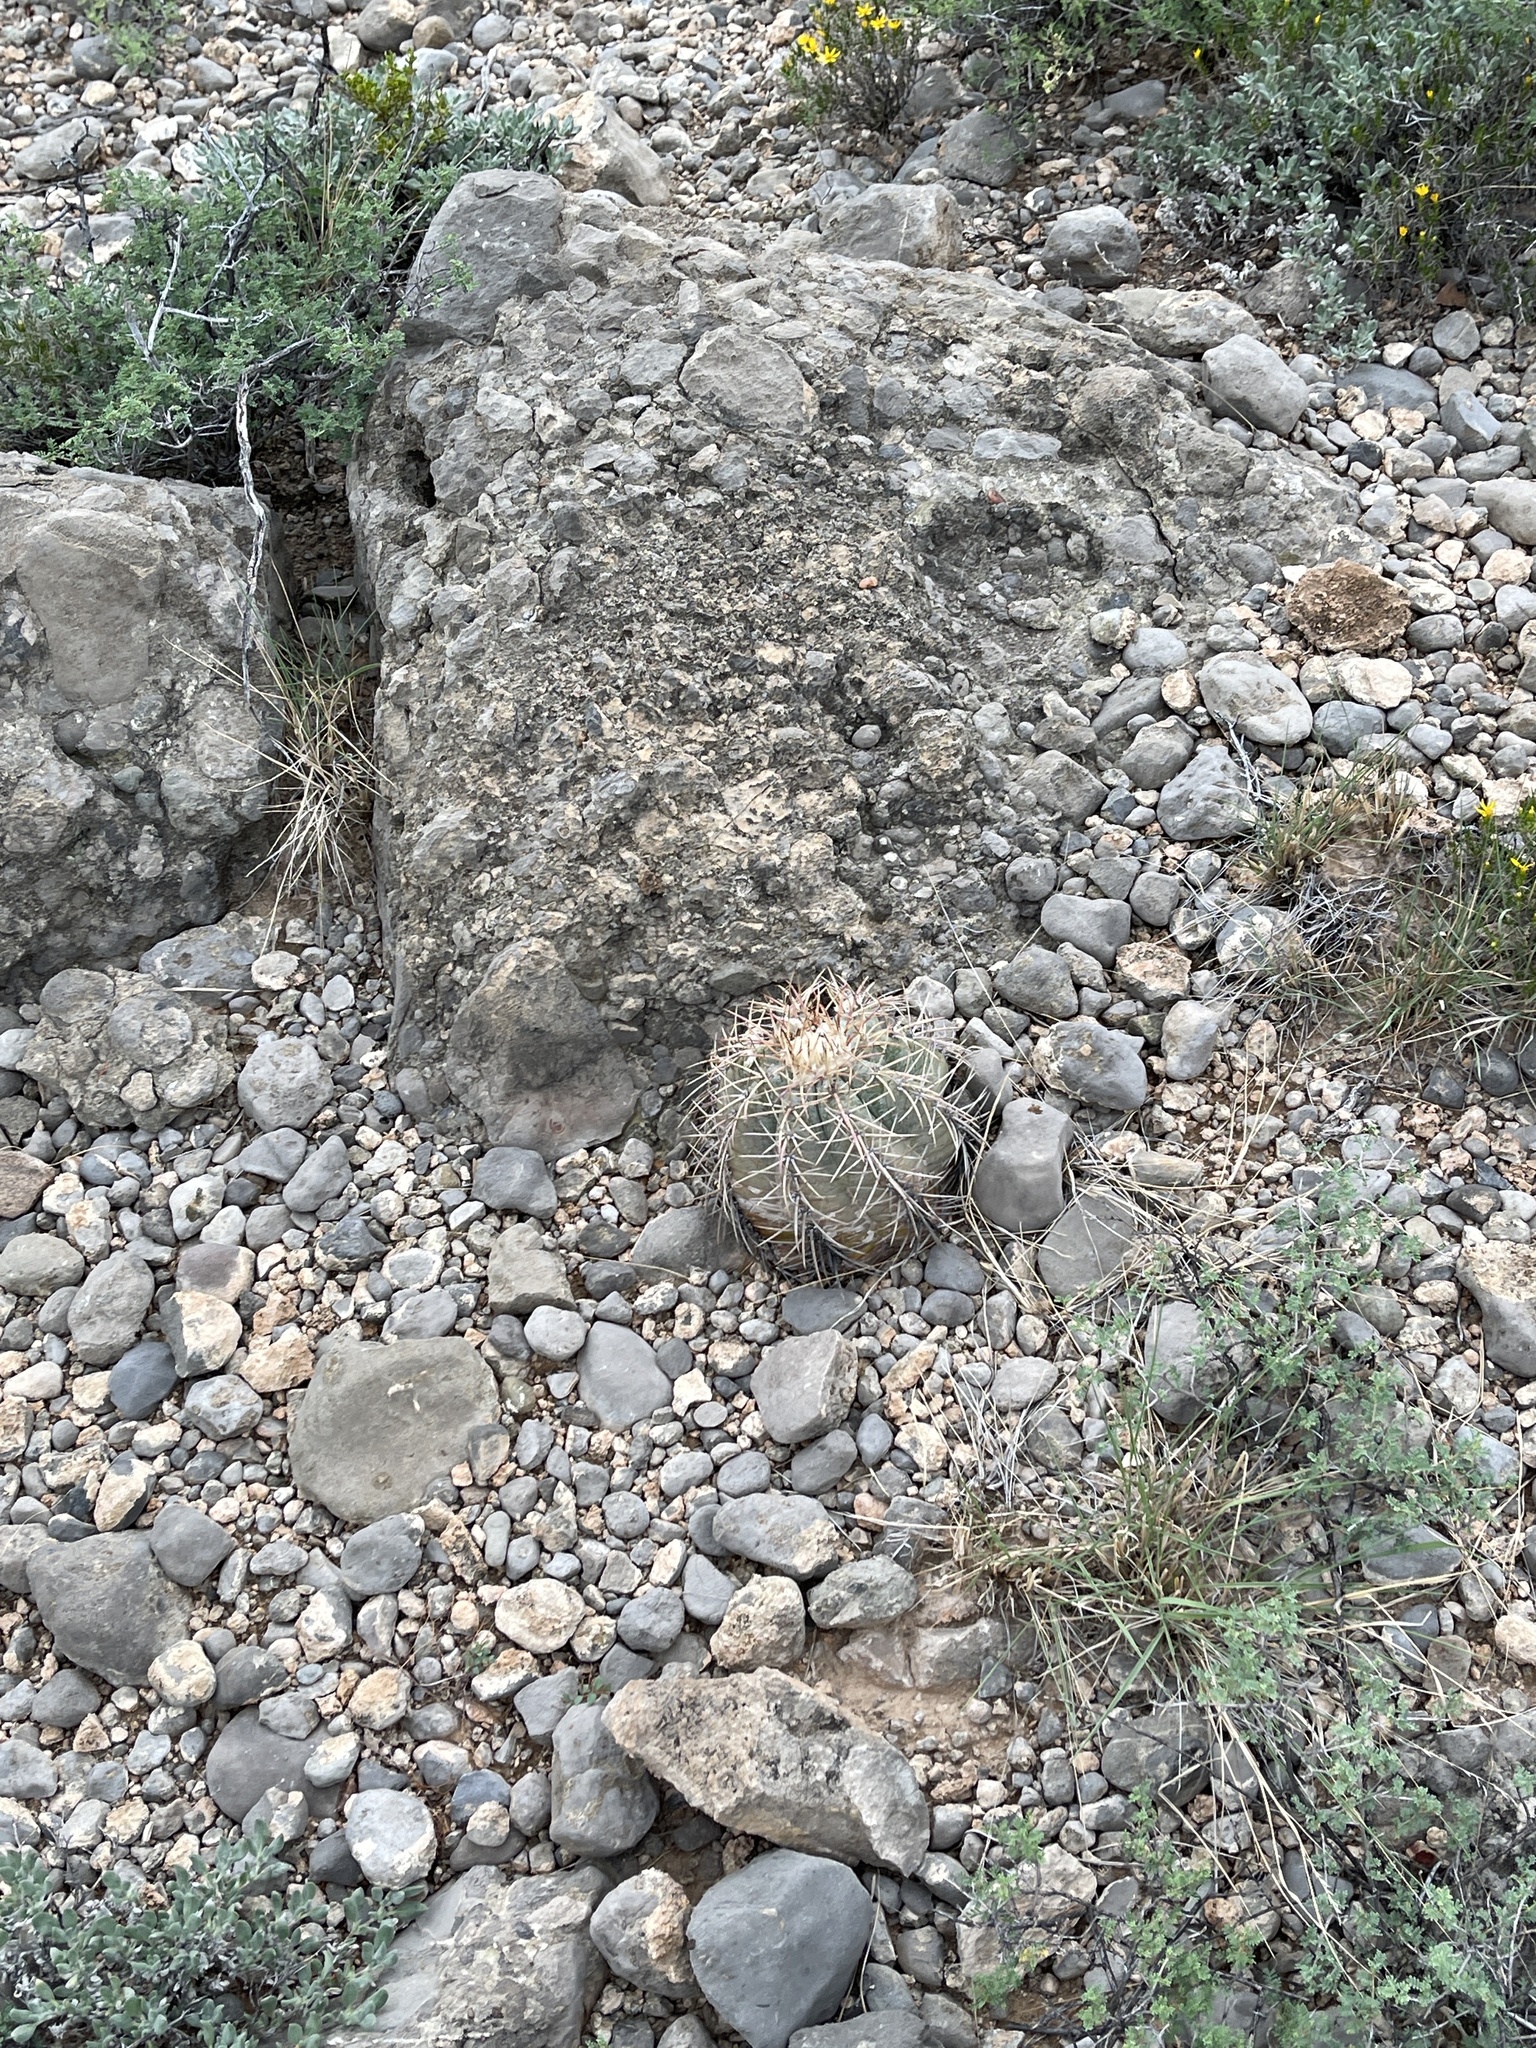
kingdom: Plantae
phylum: Tracheophyta
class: Magnoliopsida
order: Caryophyllales
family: Cactaceae
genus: Echinocactus
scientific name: Echinocactus horizonthalonius
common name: Devilshead
